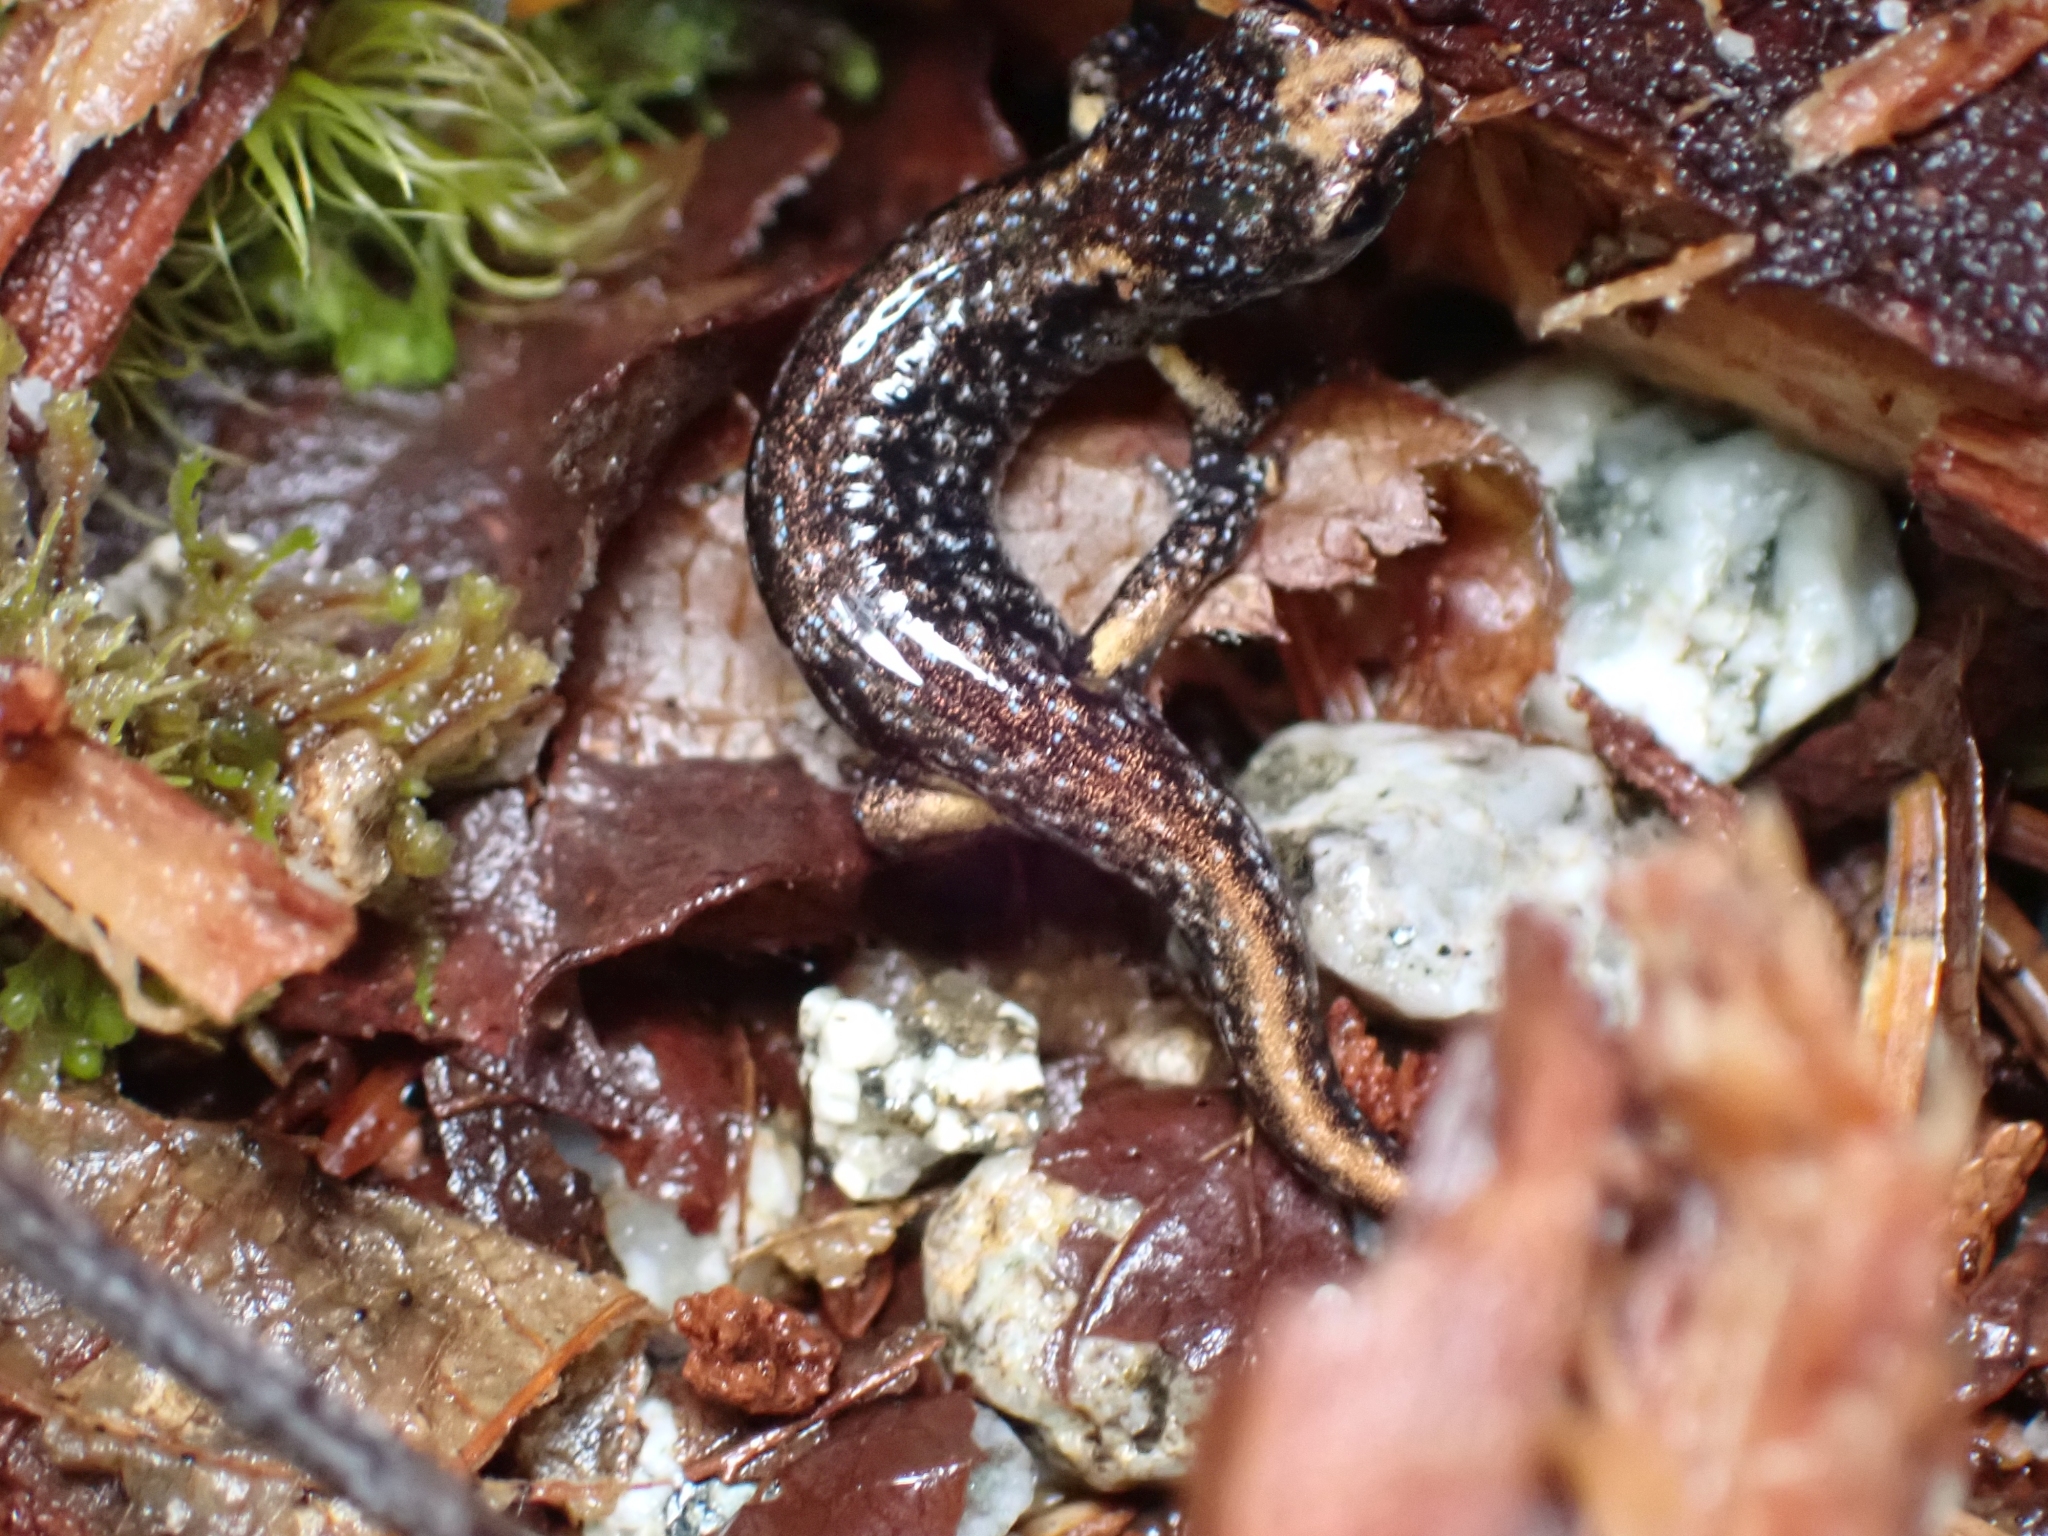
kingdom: Animalia
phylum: Chordata
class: Amphibia
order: Caudata
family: Plethodontidae
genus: Aneides
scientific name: Aneides vagrans
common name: Wandering salamander
